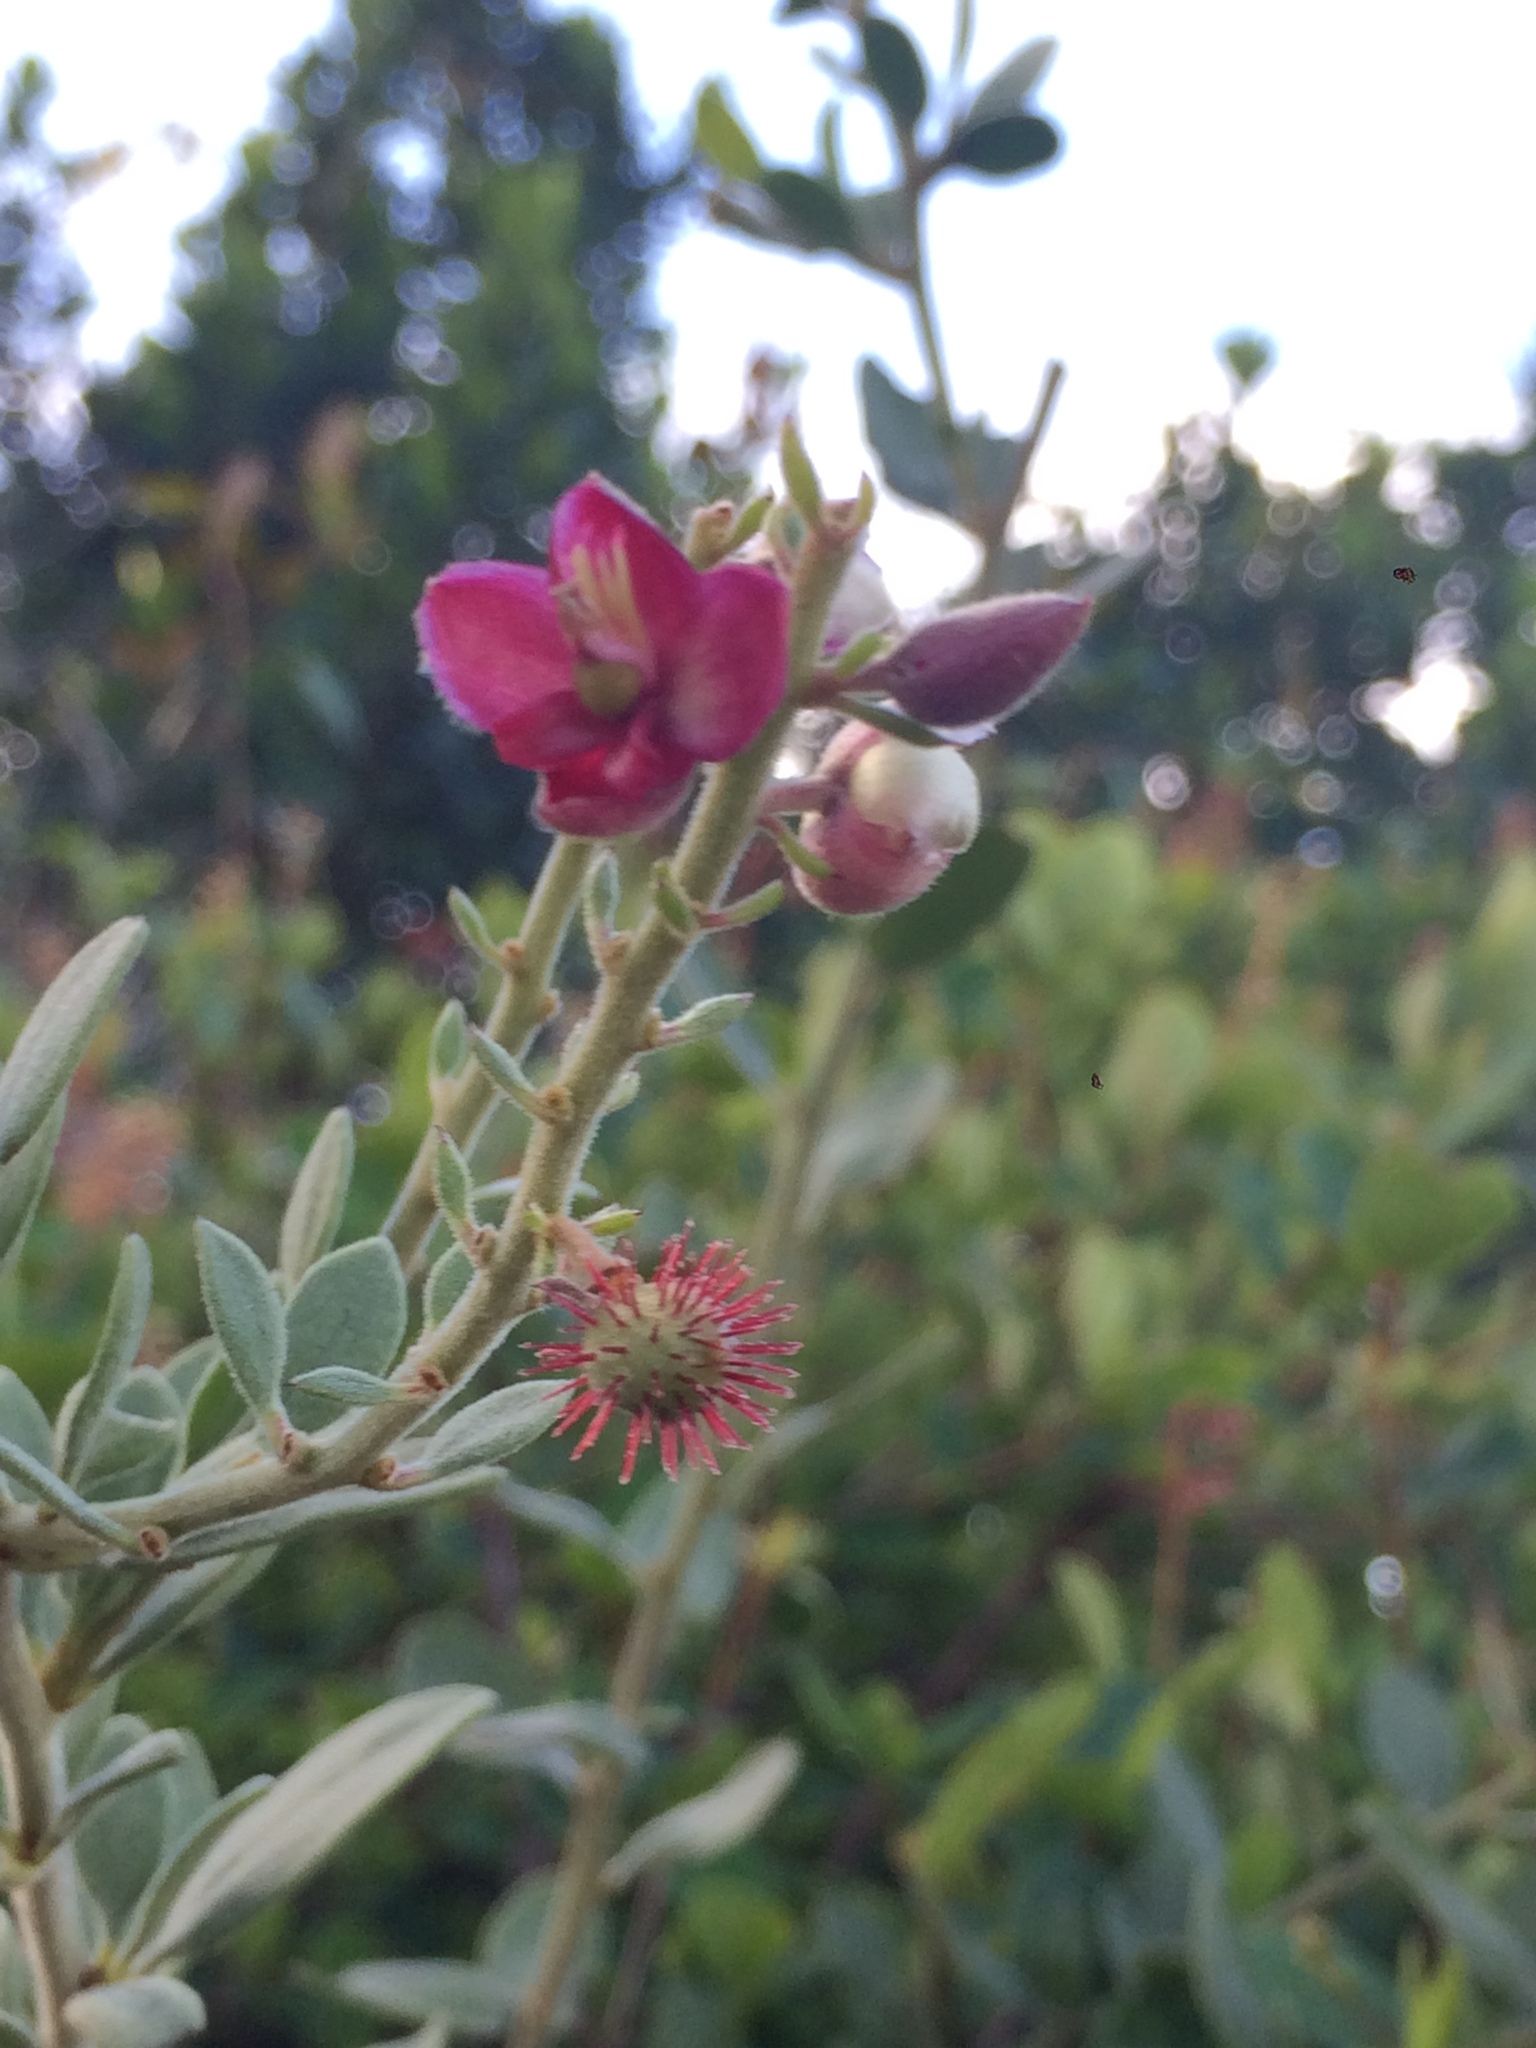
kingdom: Plantae
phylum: Tracheophyta
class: Magnoliopsida
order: Zygophyllales
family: Krameriaceae
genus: Krameria
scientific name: Krameria tomentosa
